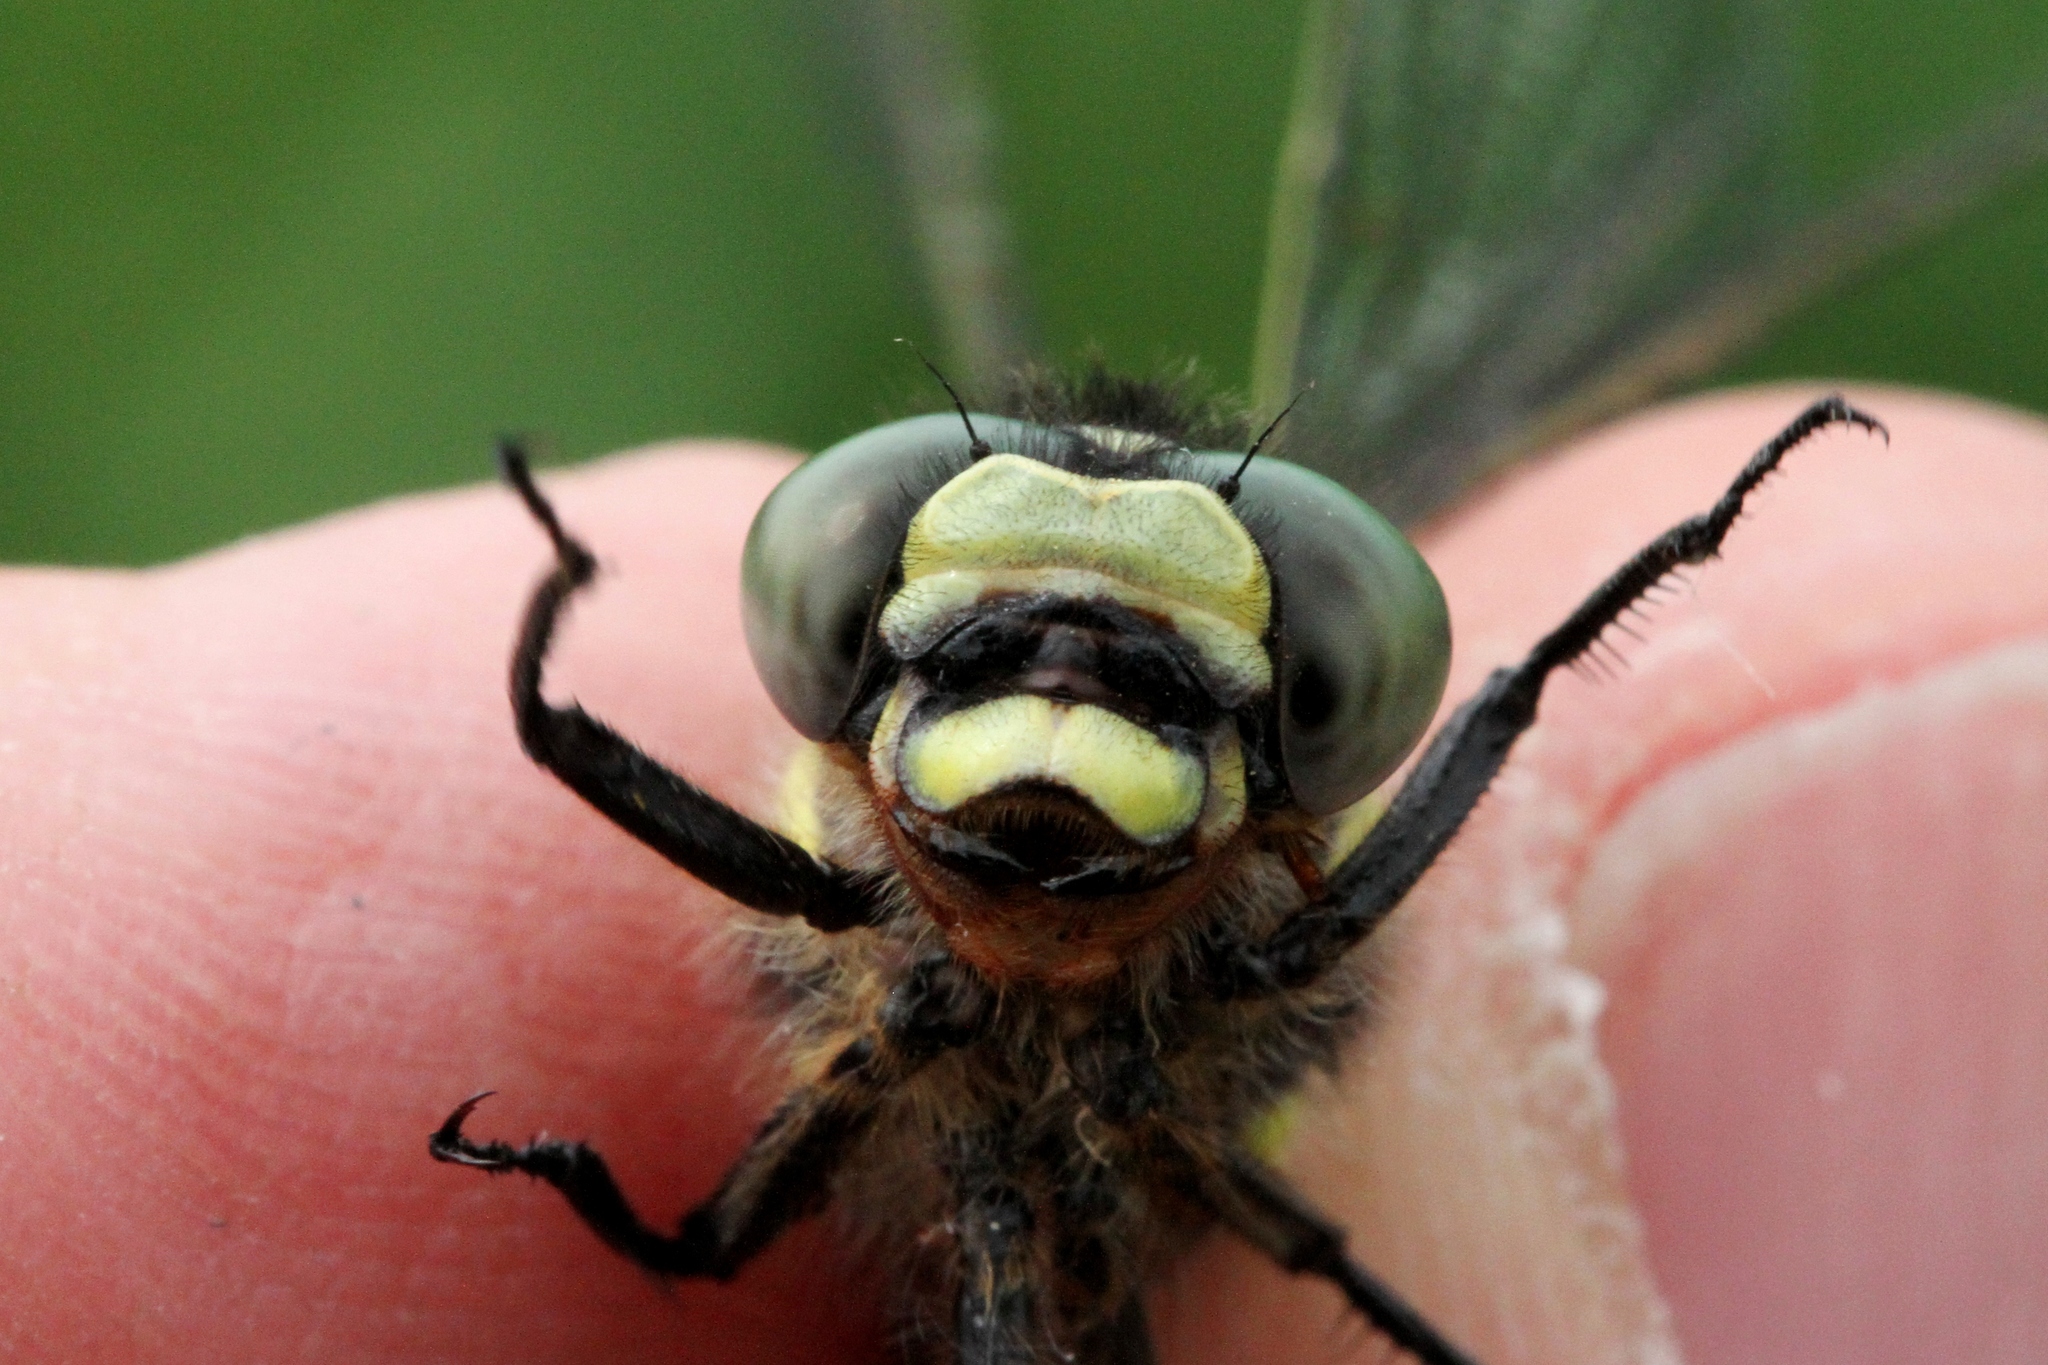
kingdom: Animalia
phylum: Arthropoda
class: Insecta
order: Odonata
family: Cordulegastridae
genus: Cordulegaster
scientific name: Cordulegaster diastatops
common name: Delta-spotted spiketail
